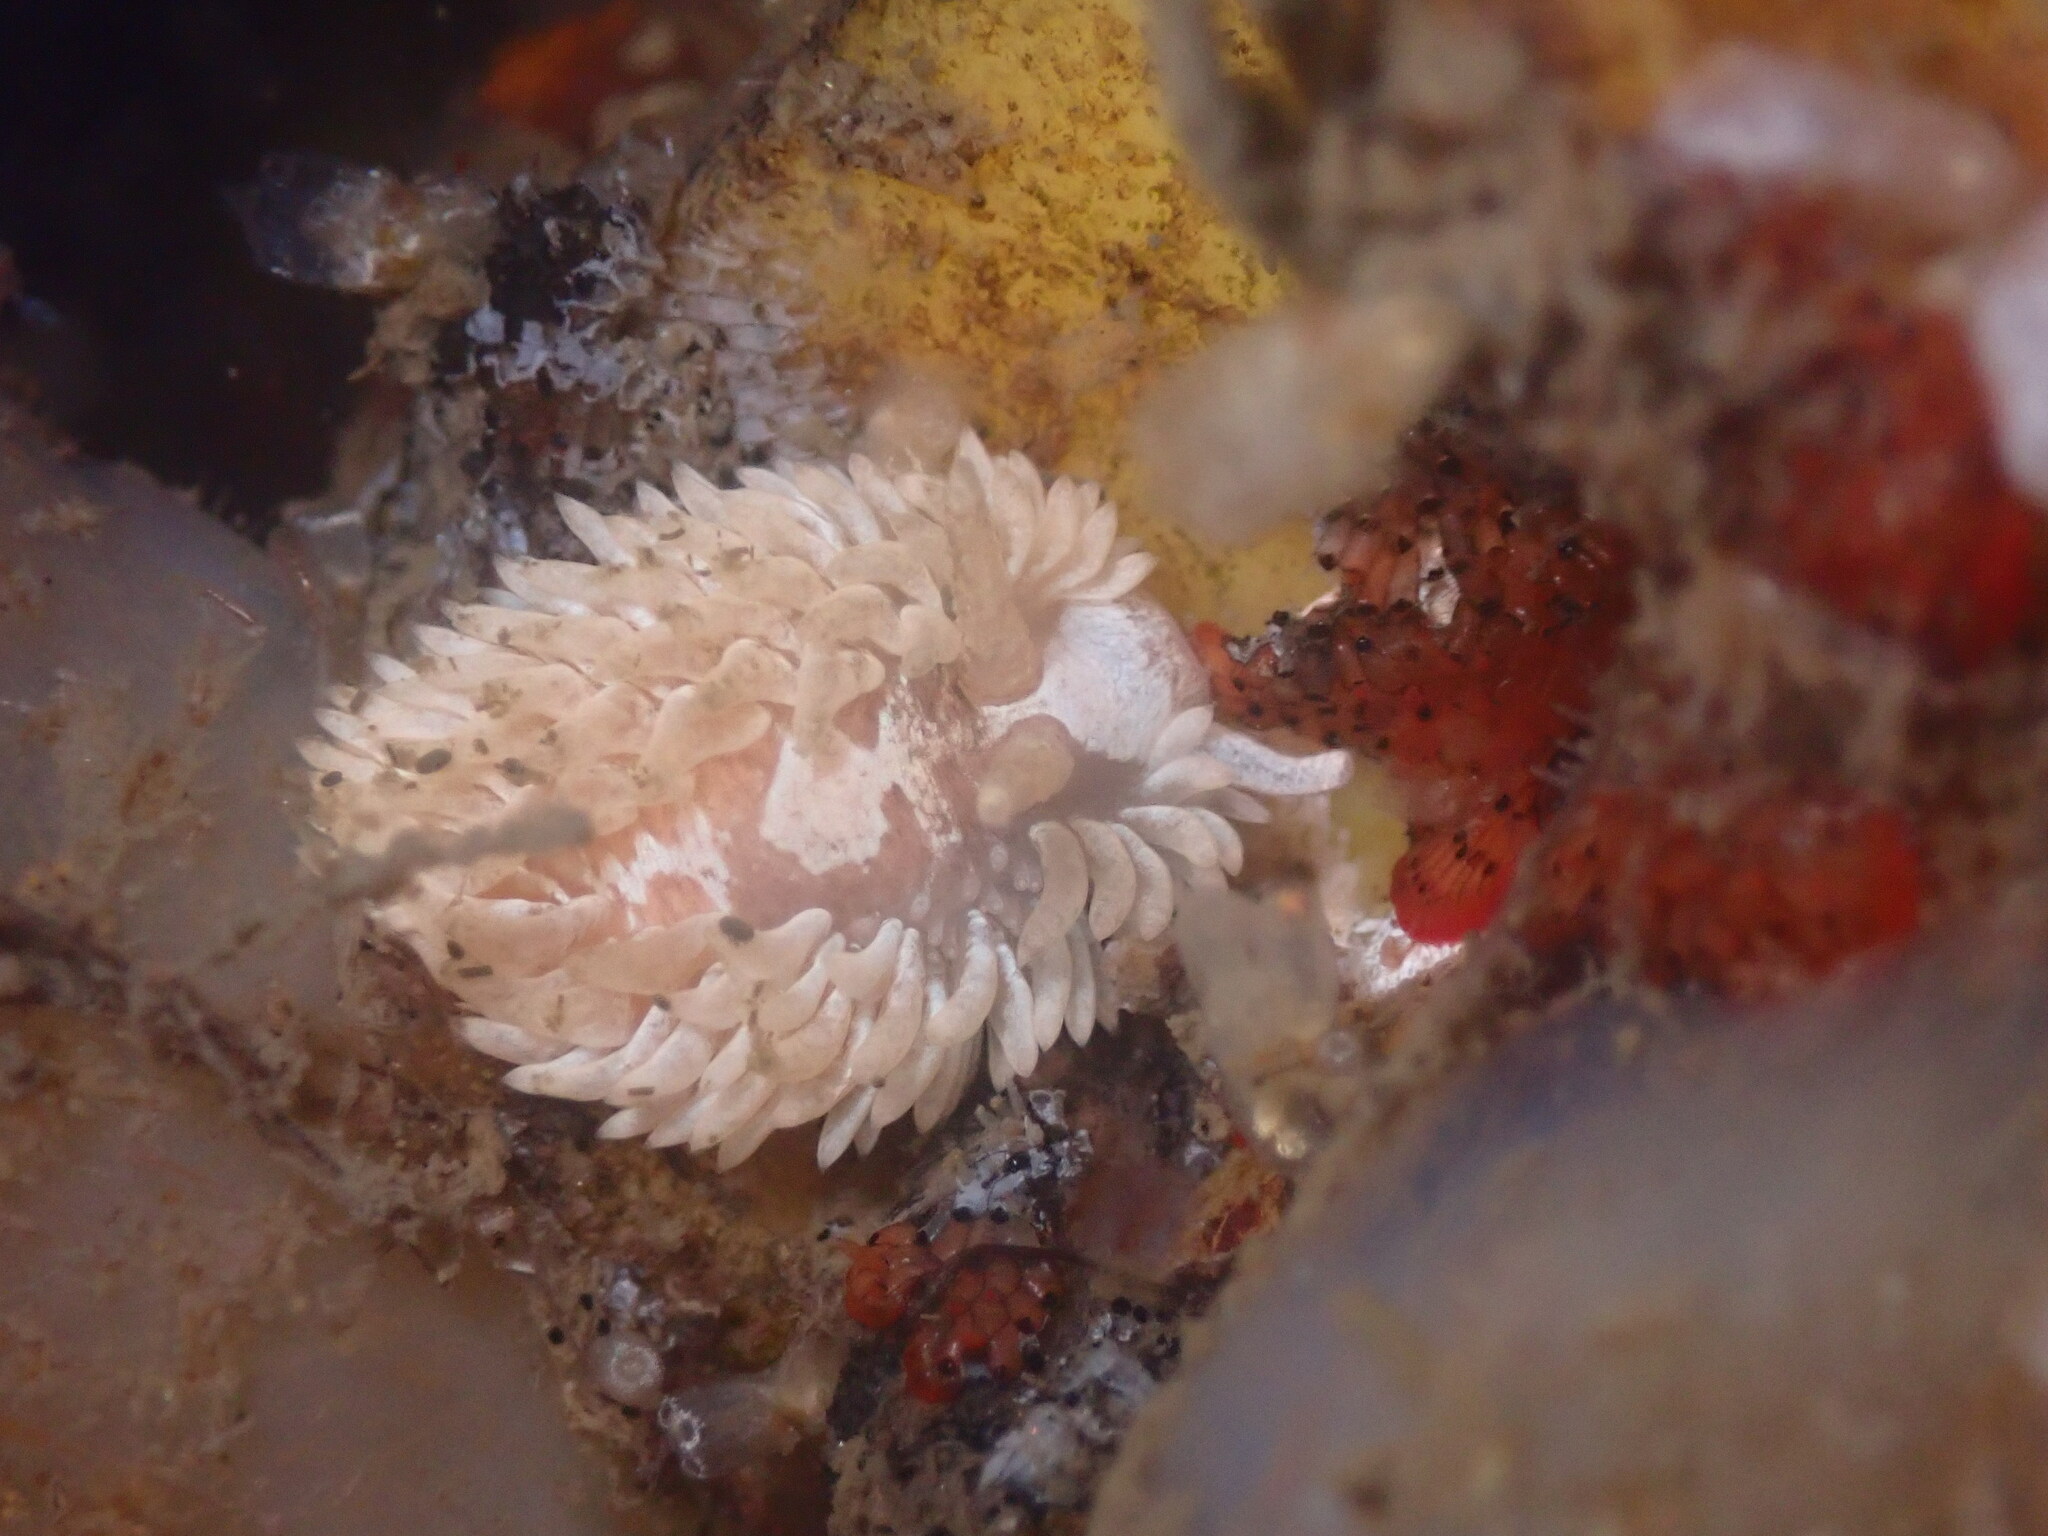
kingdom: Animalia
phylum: Mollusca
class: Gastropoda
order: Nudibranchia
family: Aeolidiidae
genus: Aeolidia
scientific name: Aeolidia loui
